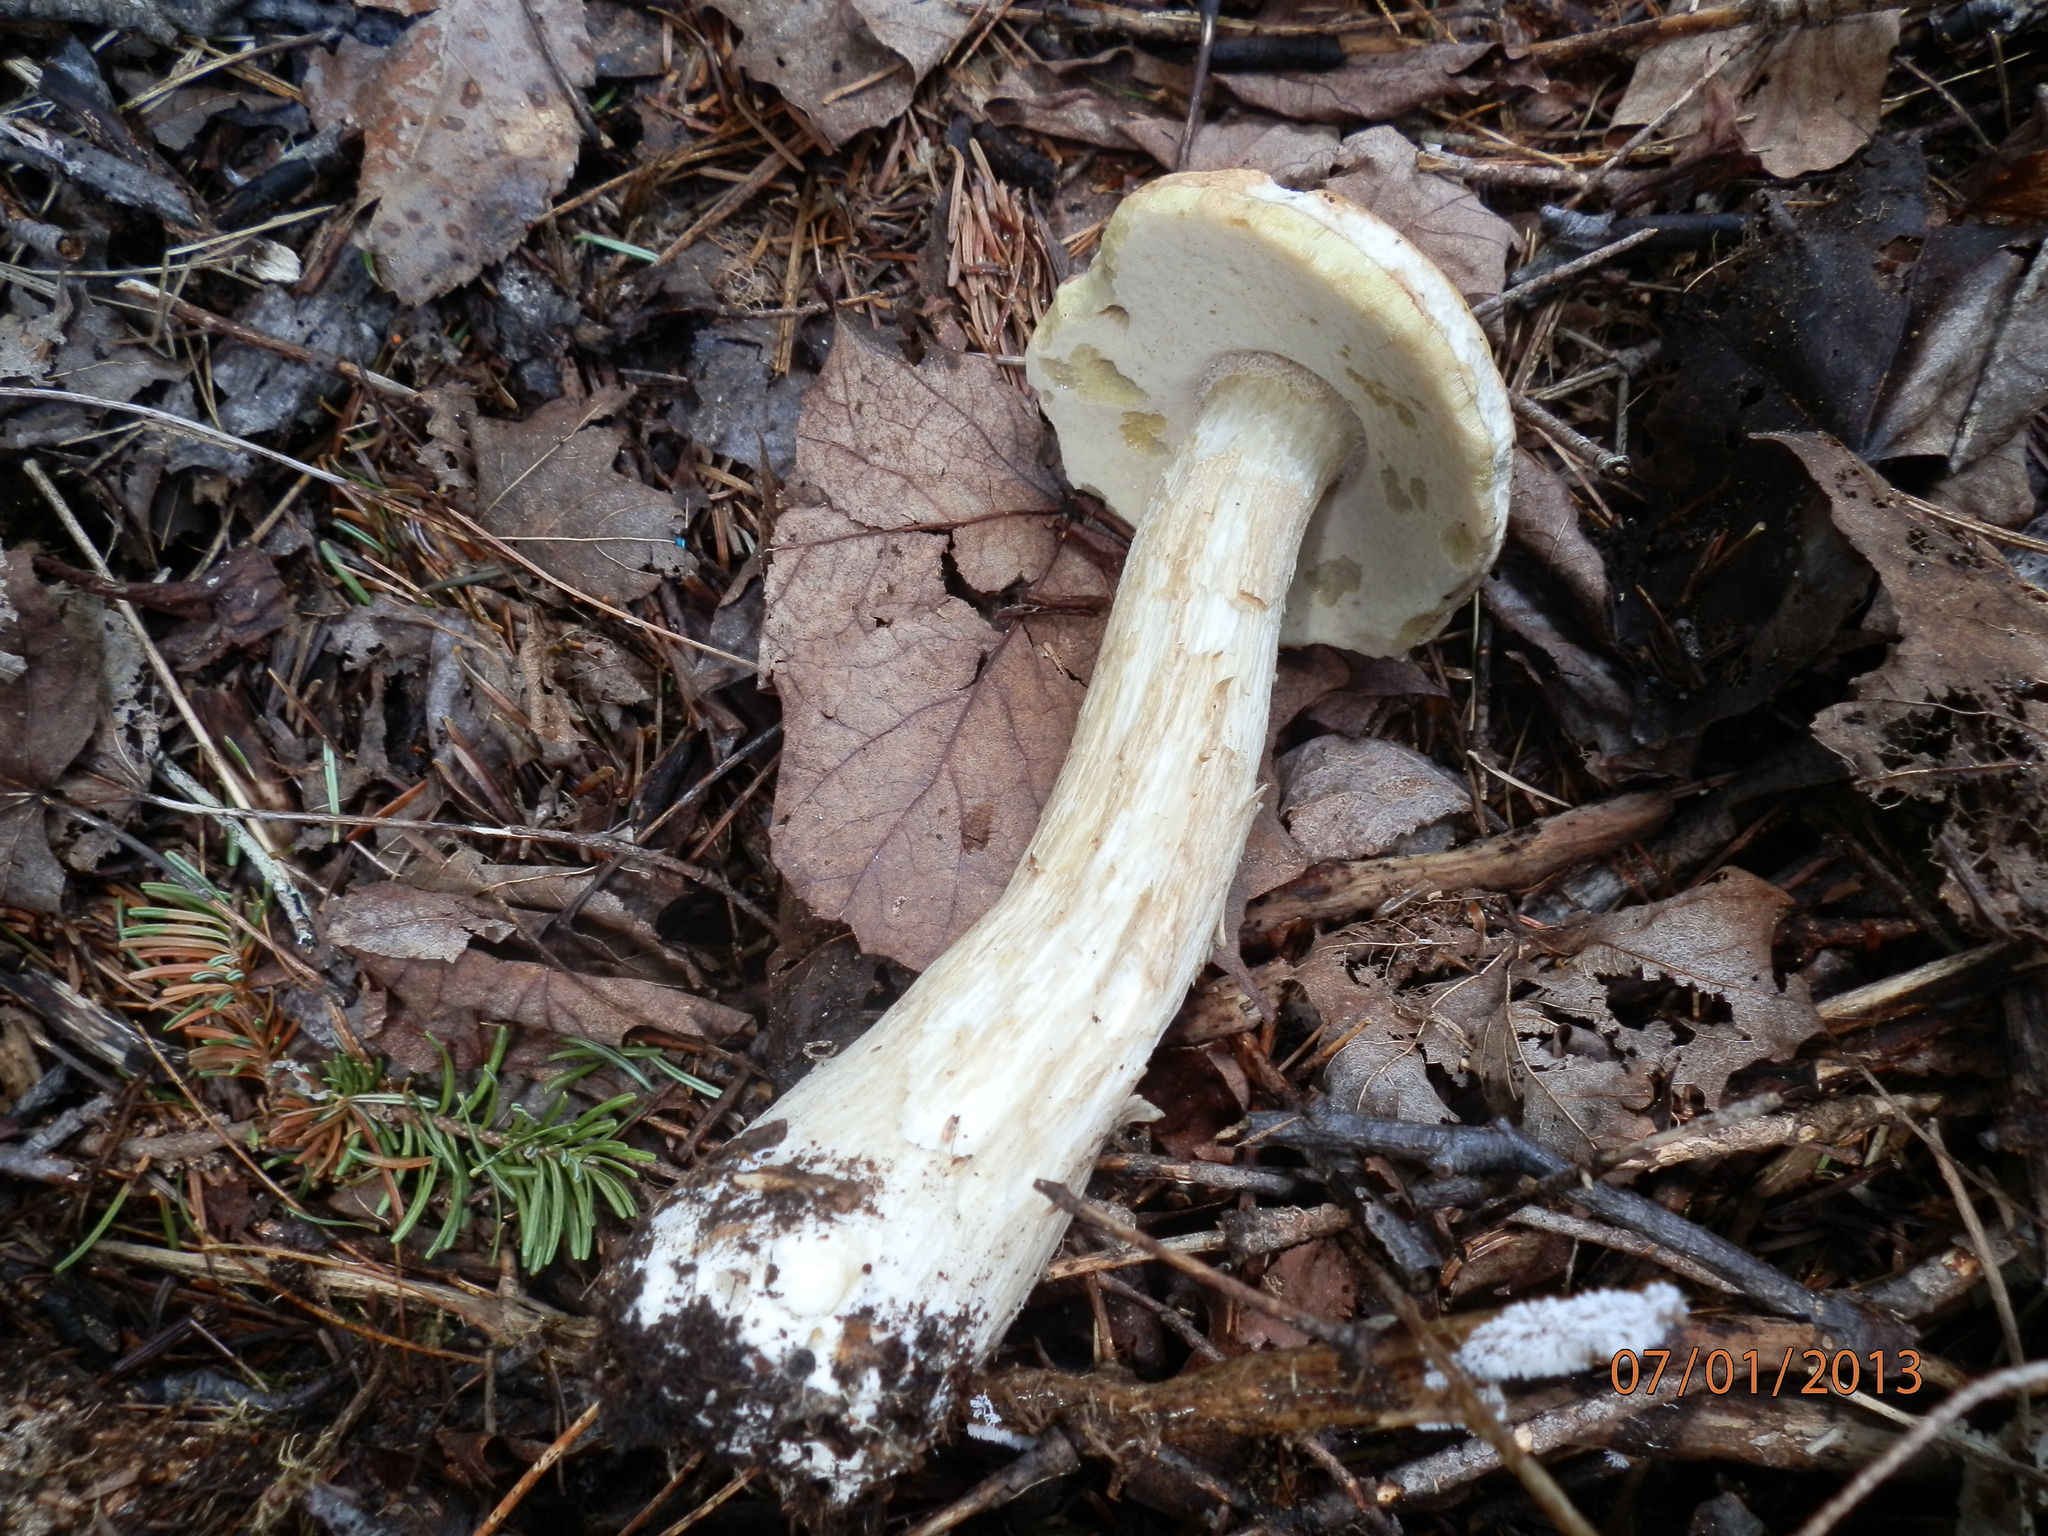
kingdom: Fungi
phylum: Basidiomycota
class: Agaricomycetes
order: Boletales
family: Boletaceae
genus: Boletus
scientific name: Boletus chippewaensis
